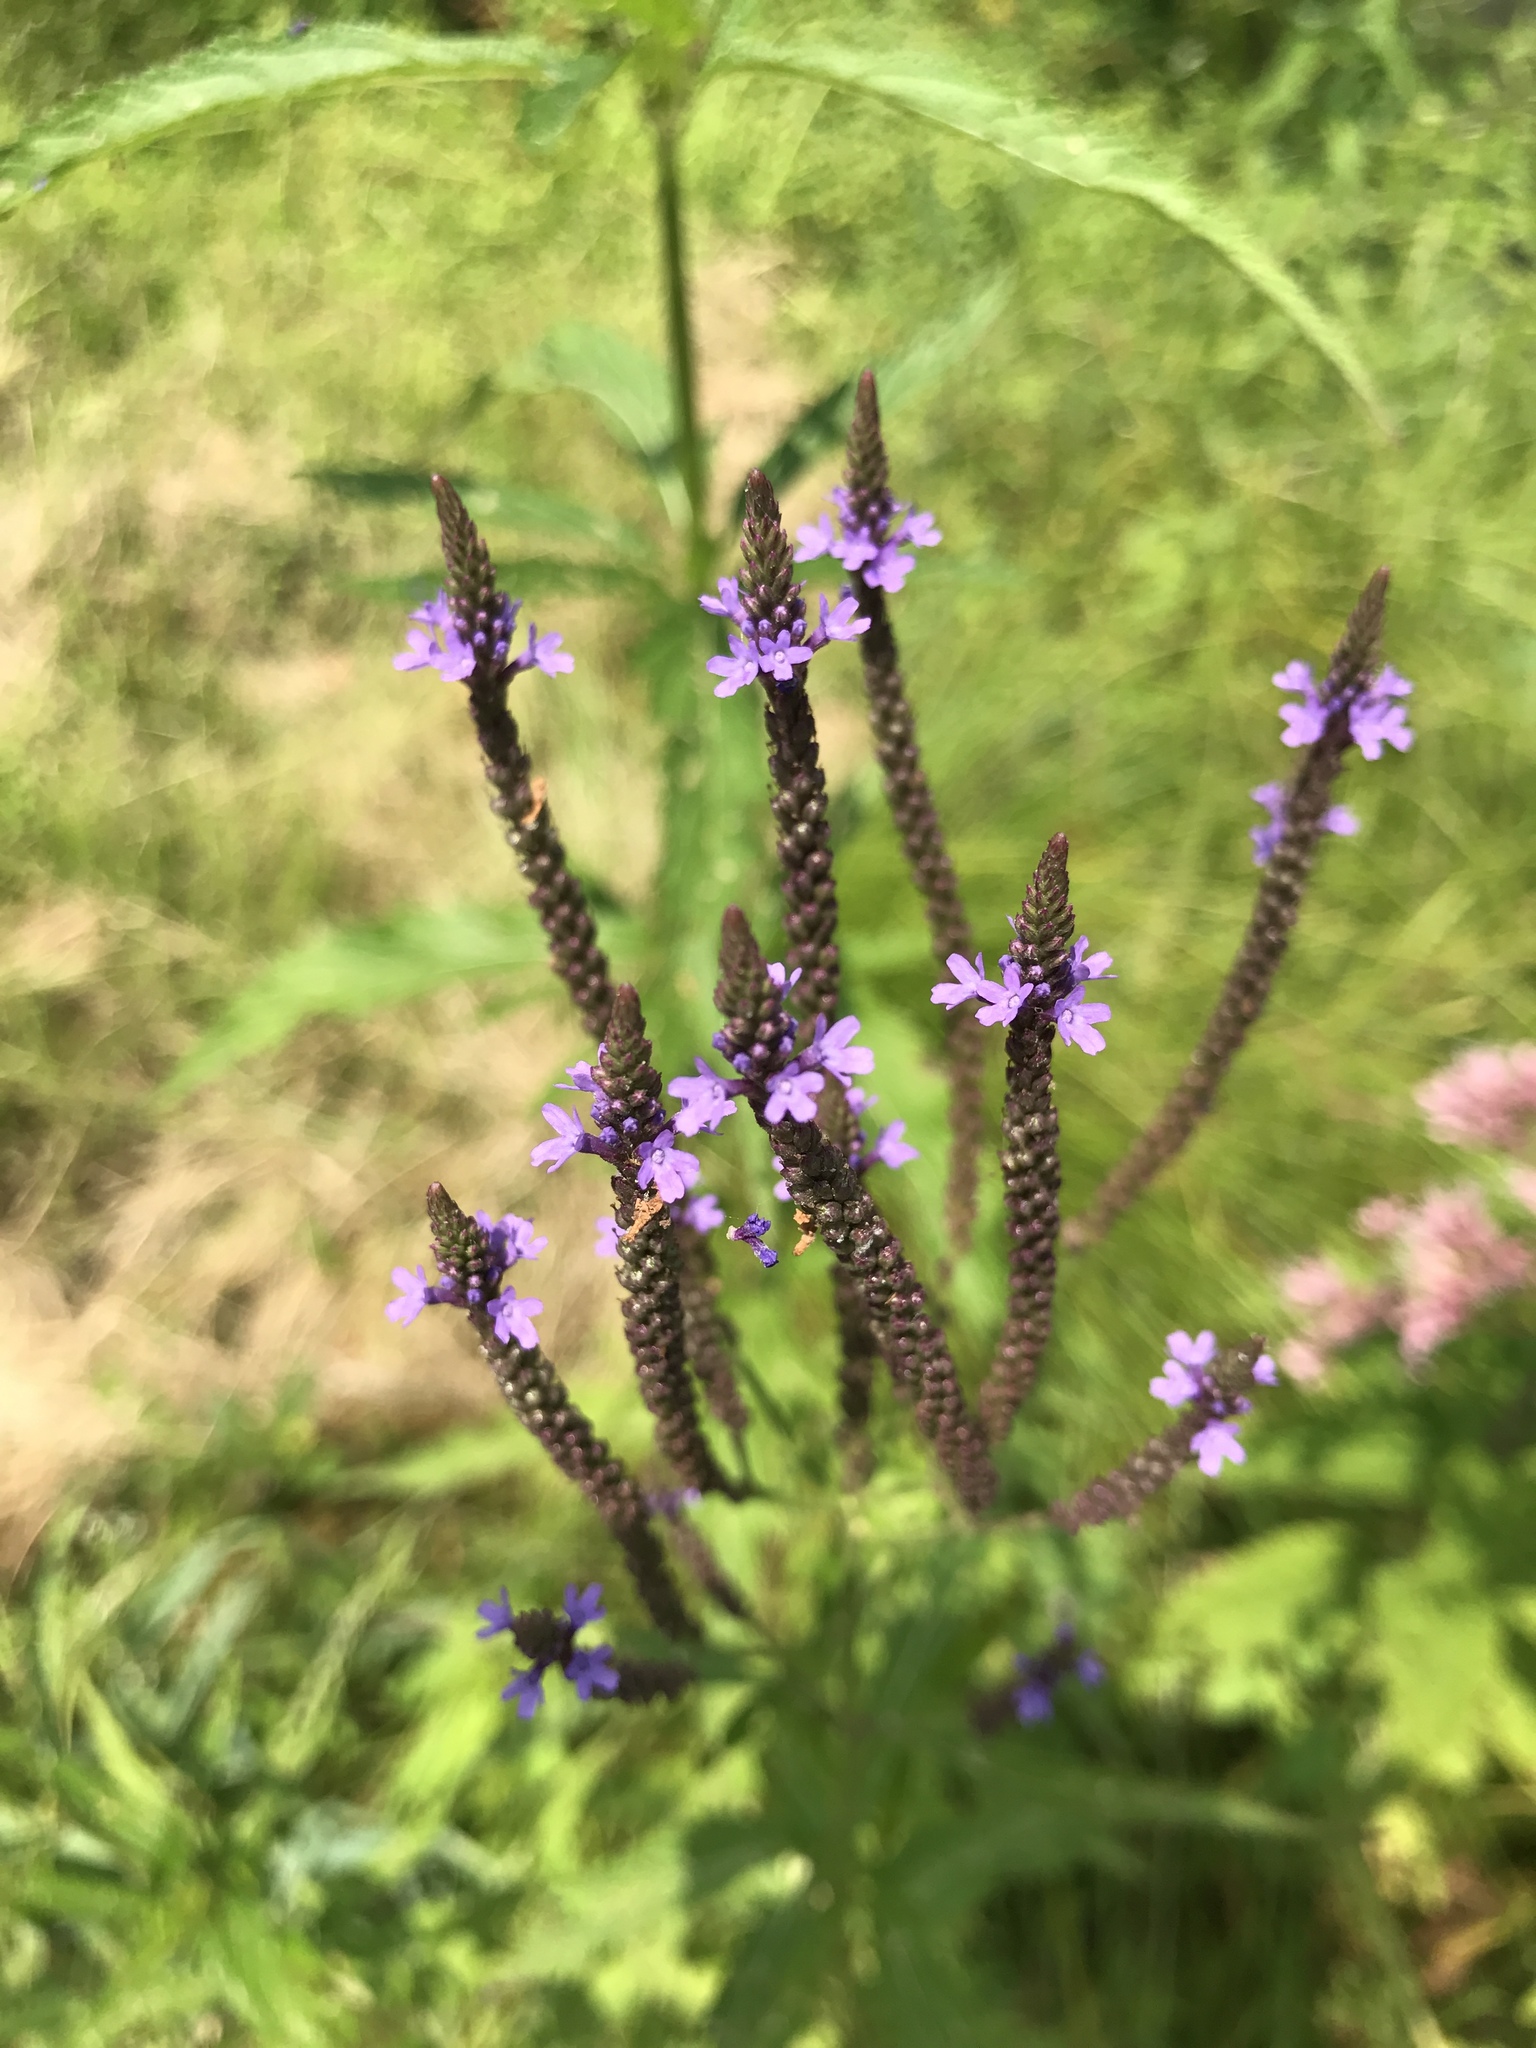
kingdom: Plantae
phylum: Tracheophyta
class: Magnoliopsida
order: Lamiales
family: Verbenaceae
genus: Verbena
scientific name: Verbena hastata
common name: American blue vervain
